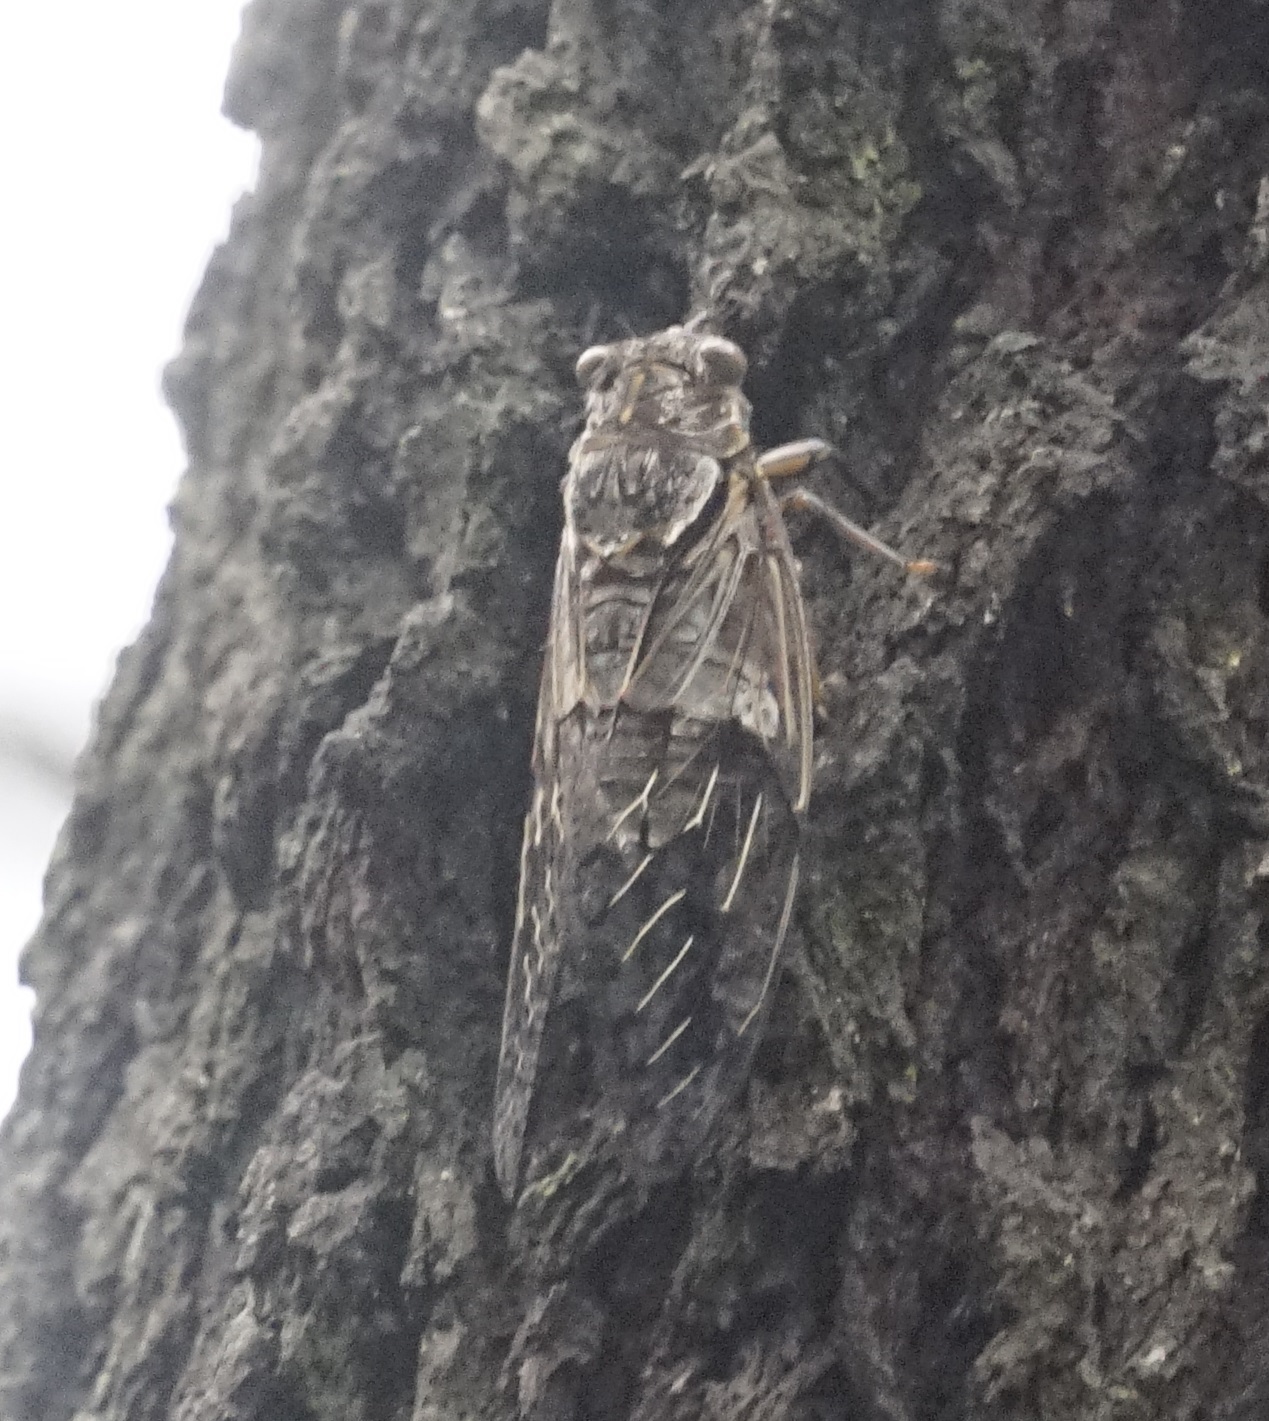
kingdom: Animalia
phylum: Arthropoda
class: Insecta
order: Hemiptera
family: Cicadidae
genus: Henicopsaltria
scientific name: Henicopsaltria eydouxii
